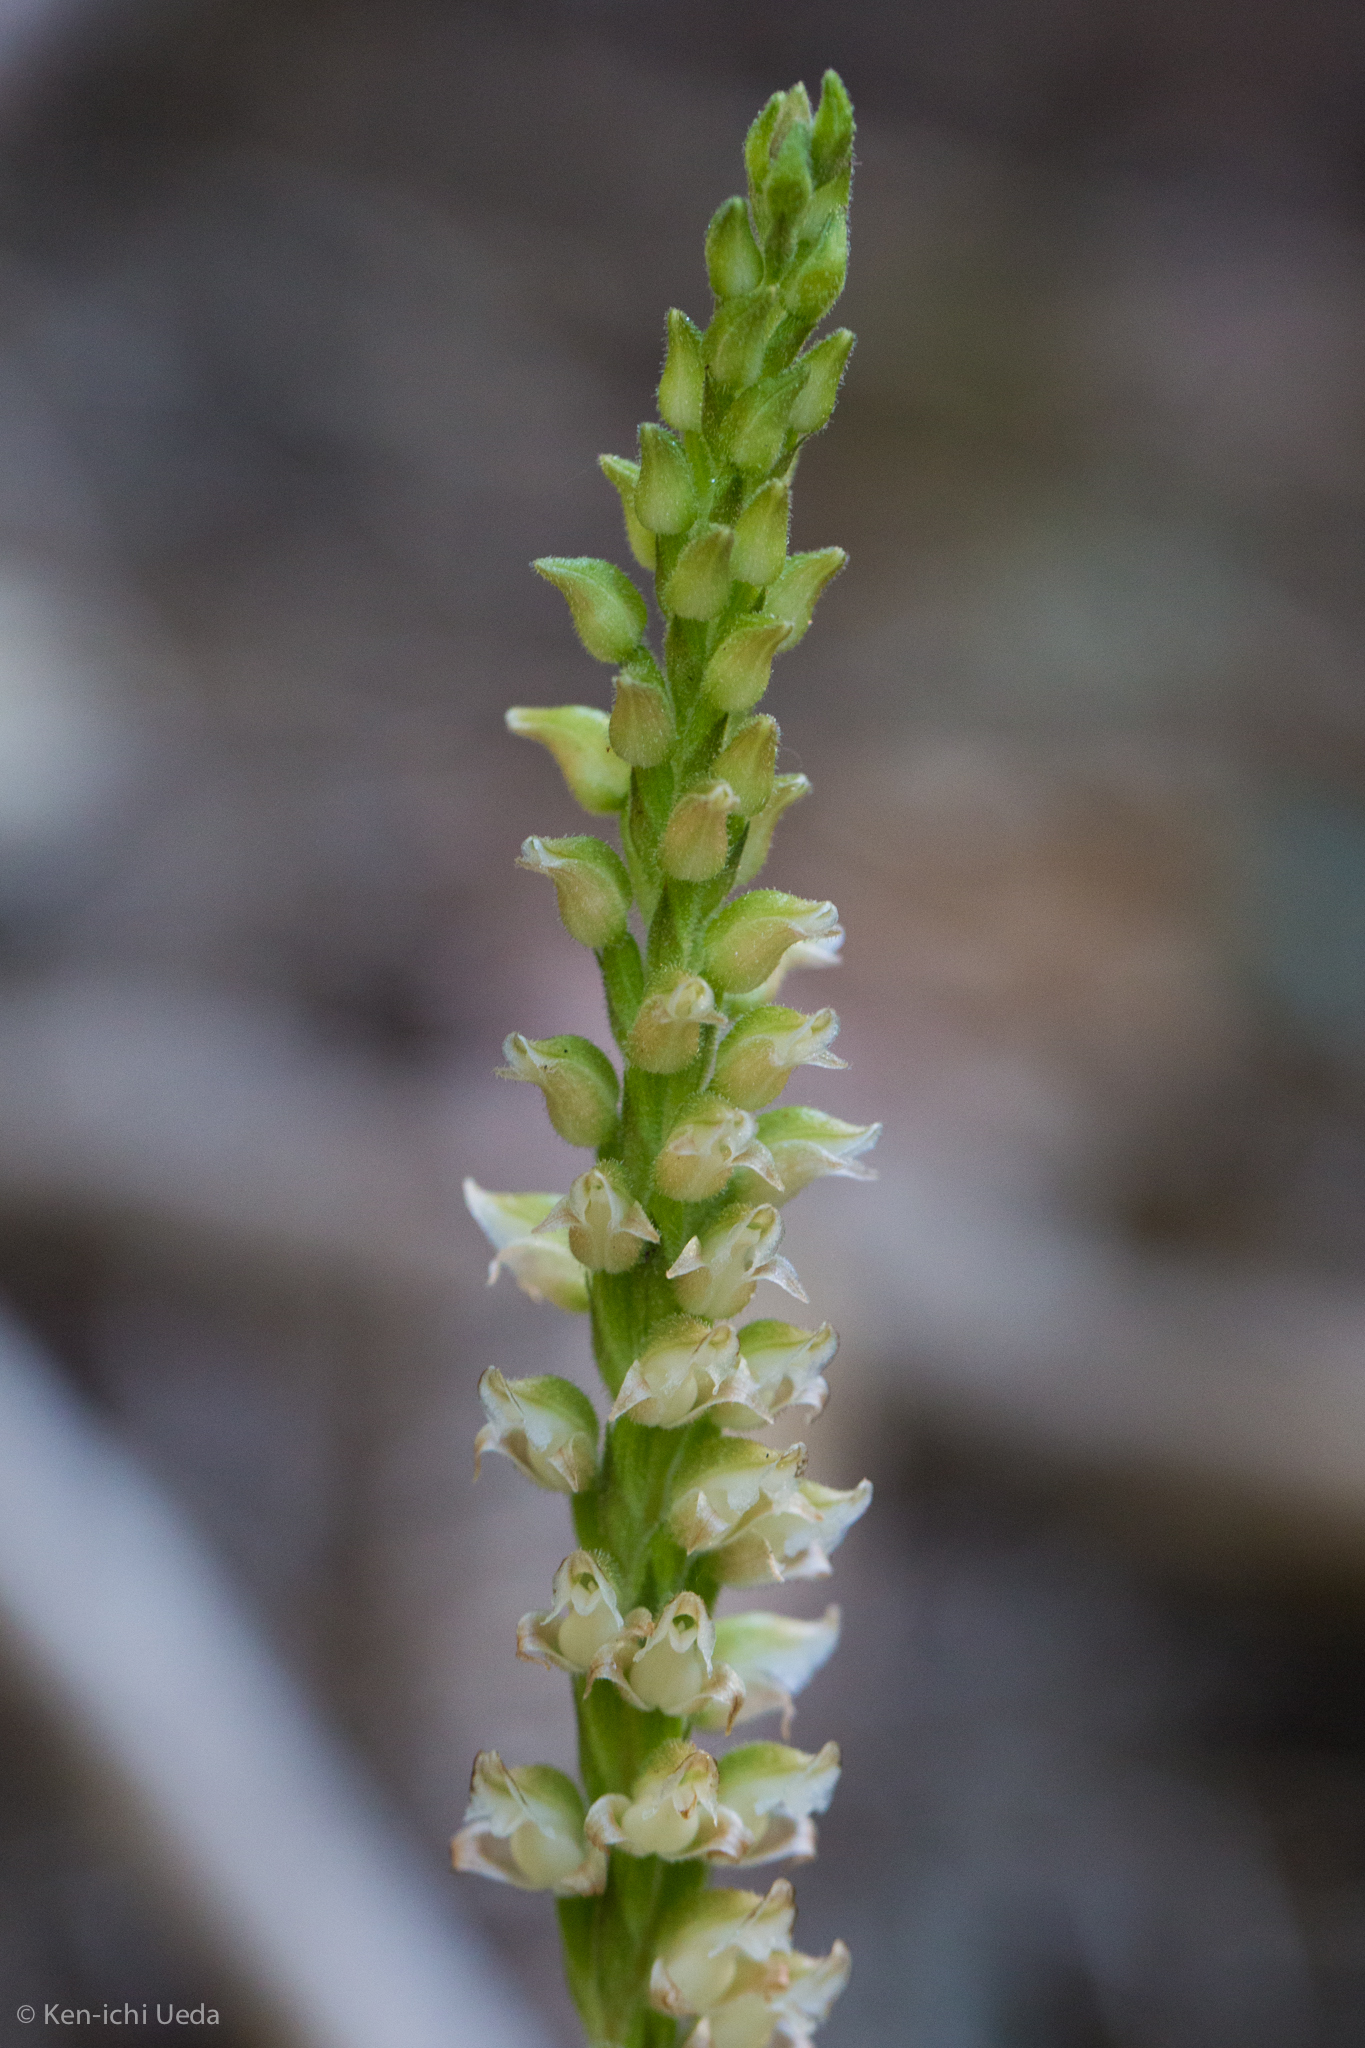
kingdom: Plantae
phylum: Tracheophyta
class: Liliopsida
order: Asparagales
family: Orchidaceae
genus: Goodyera
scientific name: Goodyera oblongifolia
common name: Giant rattlesnake-plantain
